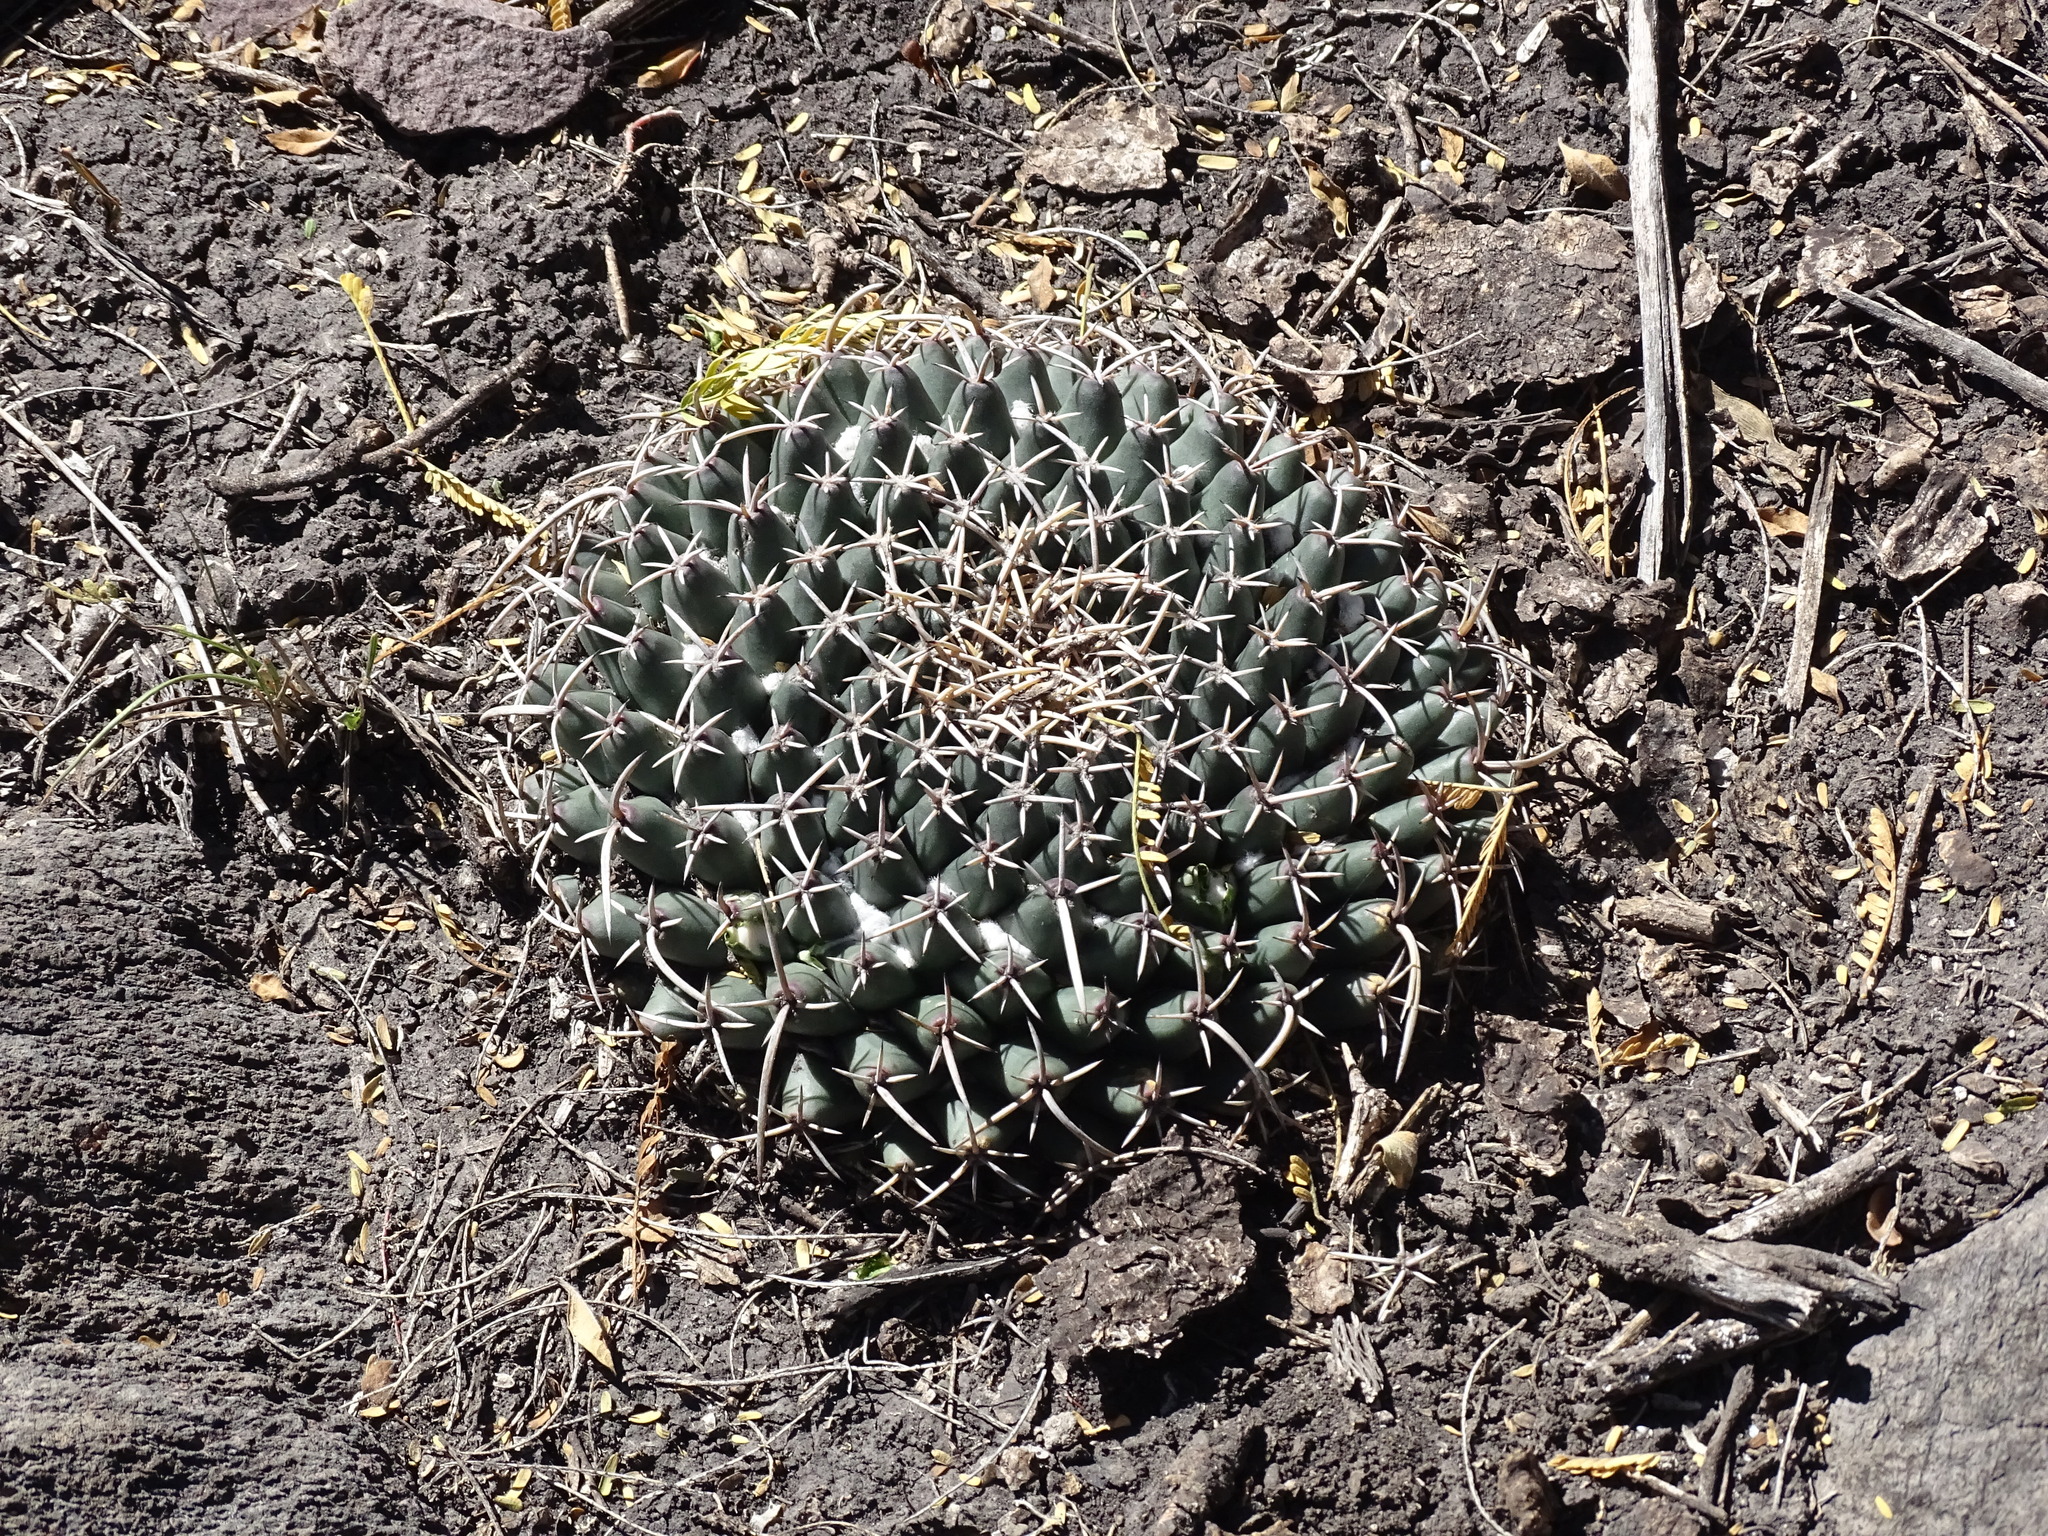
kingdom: Plantae
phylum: Tracheophyta
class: Magnoliopsida
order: Caryophyllales
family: Cactaceae
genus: Mammillaria
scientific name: Mammillaria magnimamma
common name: Mexican pincushion
